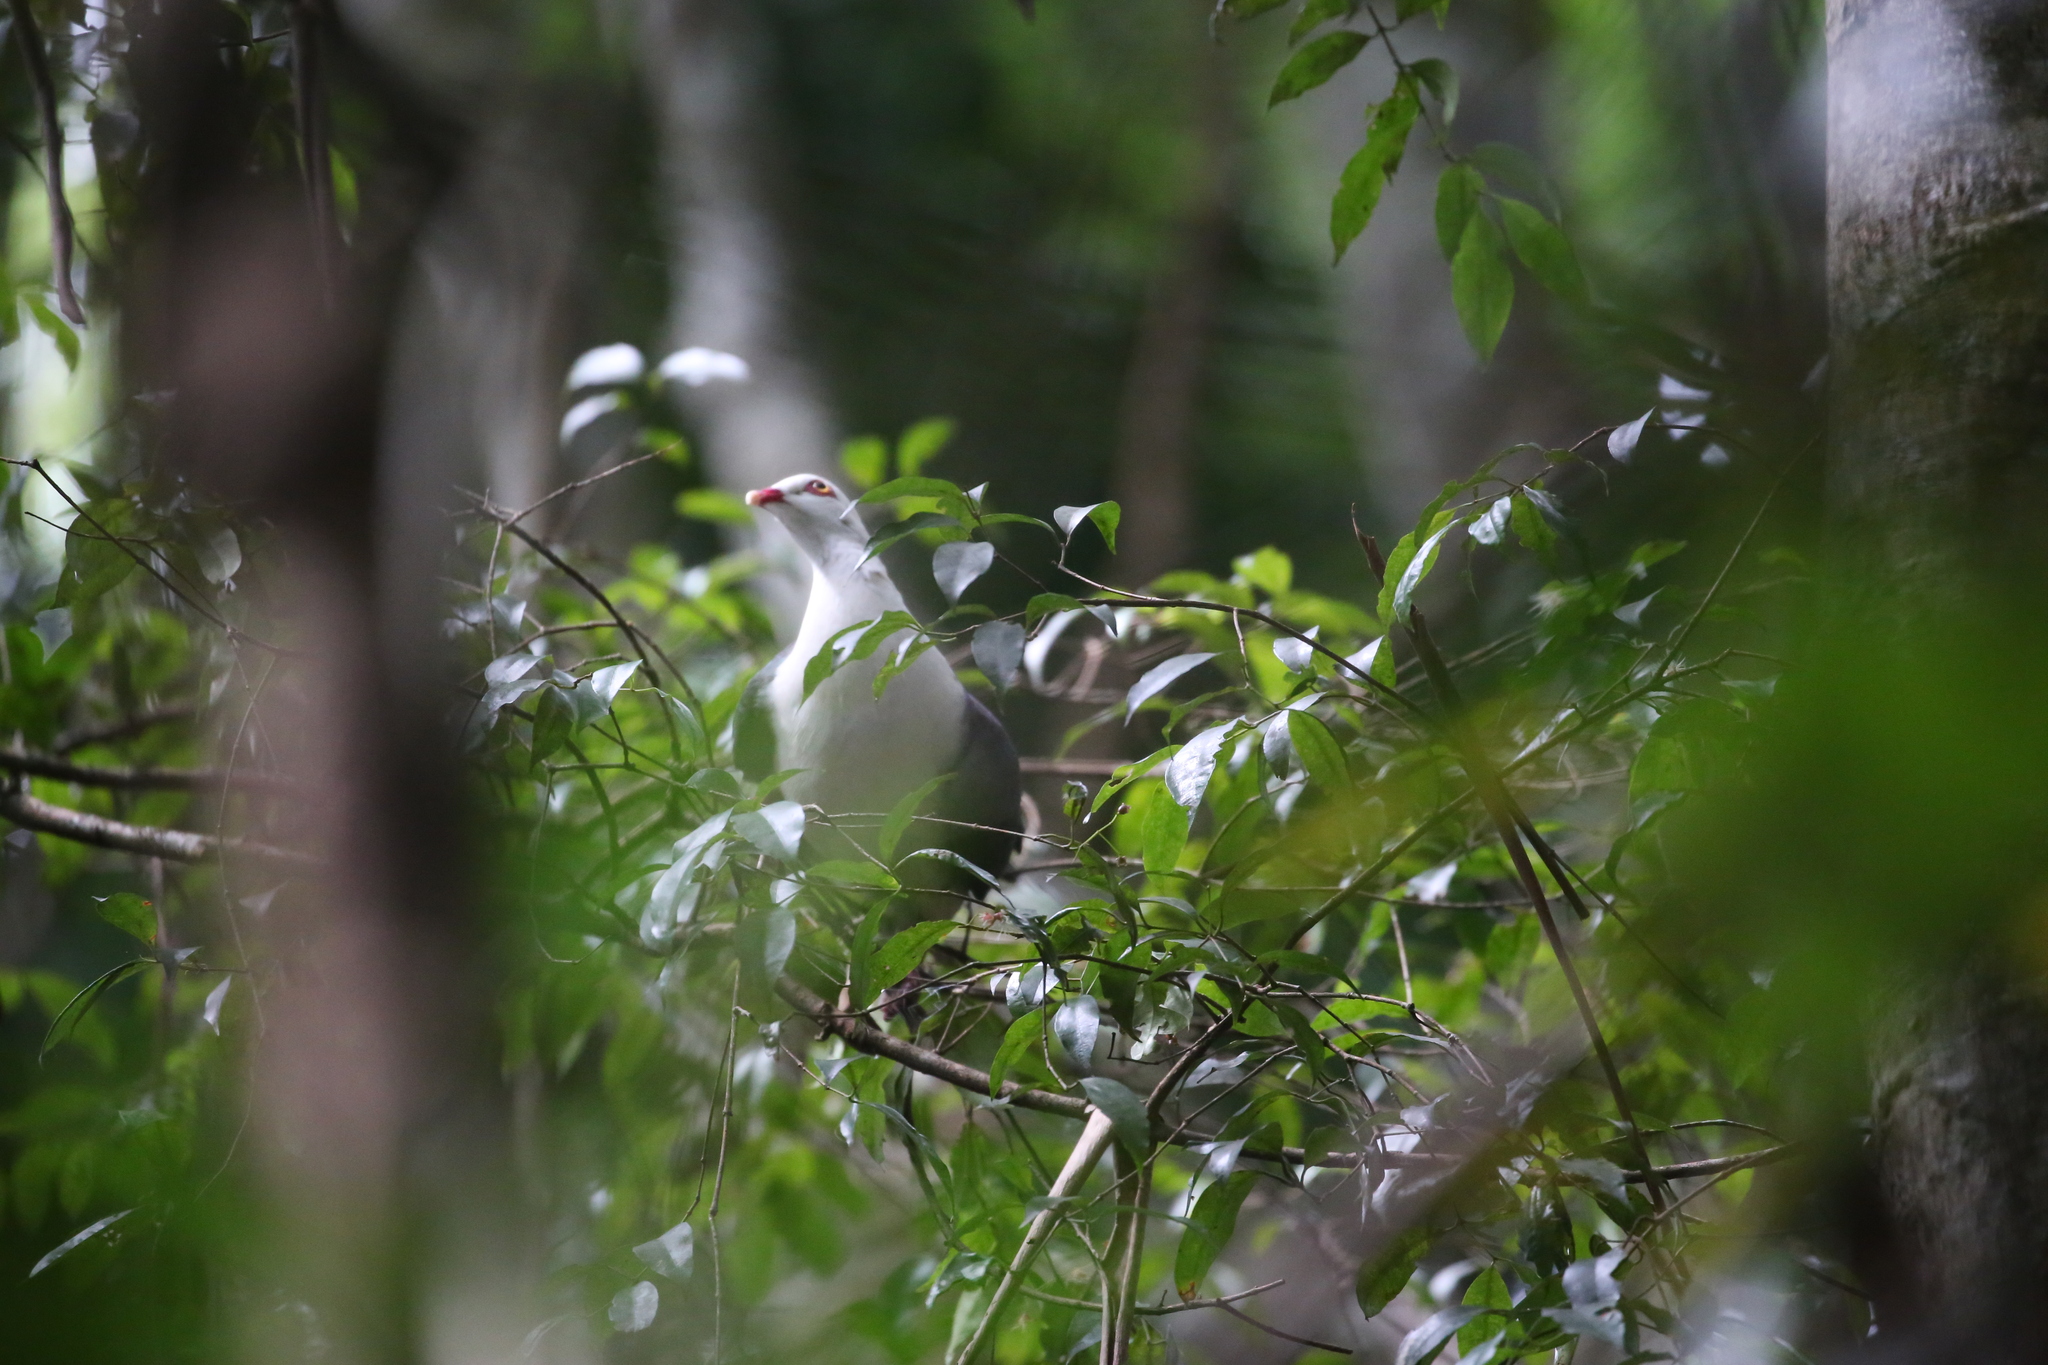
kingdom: Animalia
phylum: Chordata
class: Aves
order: Columbiformes
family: Columbidae
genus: Columba
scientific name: Columba leucomela
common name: White-headed pigeon
